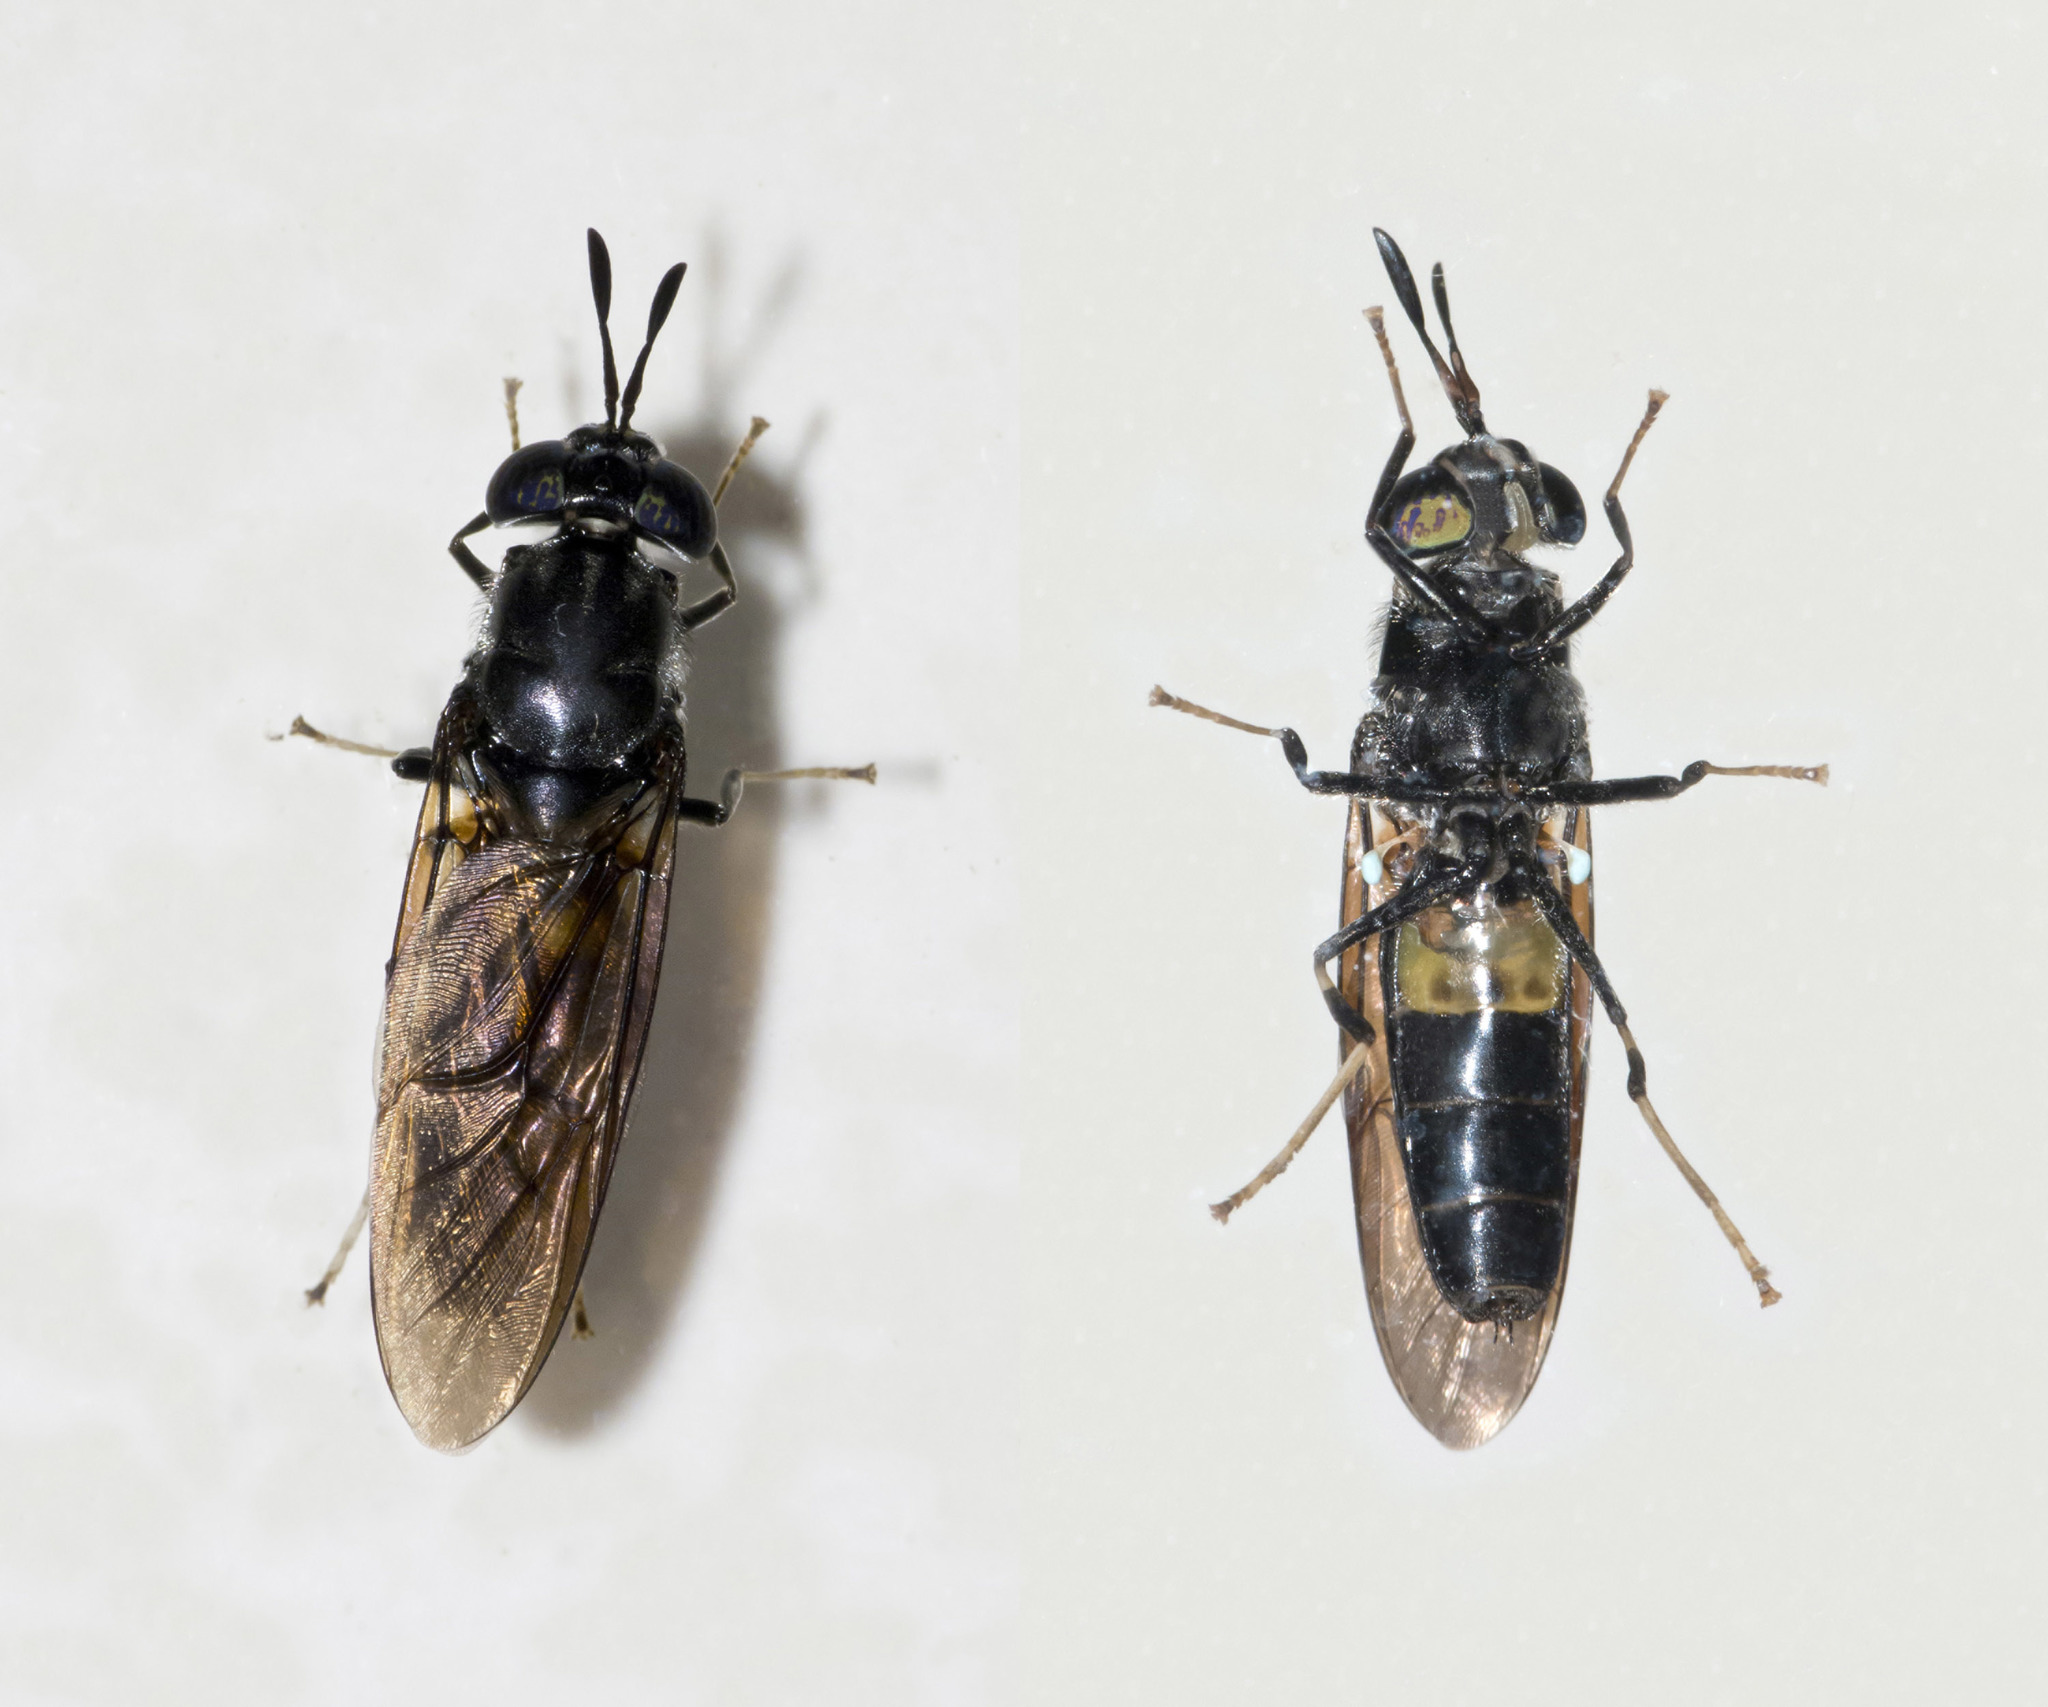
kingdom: Animalia
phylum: Arthropoda
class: Insecta
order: Diptera
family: Stratiomyidae
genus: Hermetia
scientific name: Hermetia illucens
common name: Black soldier fly
